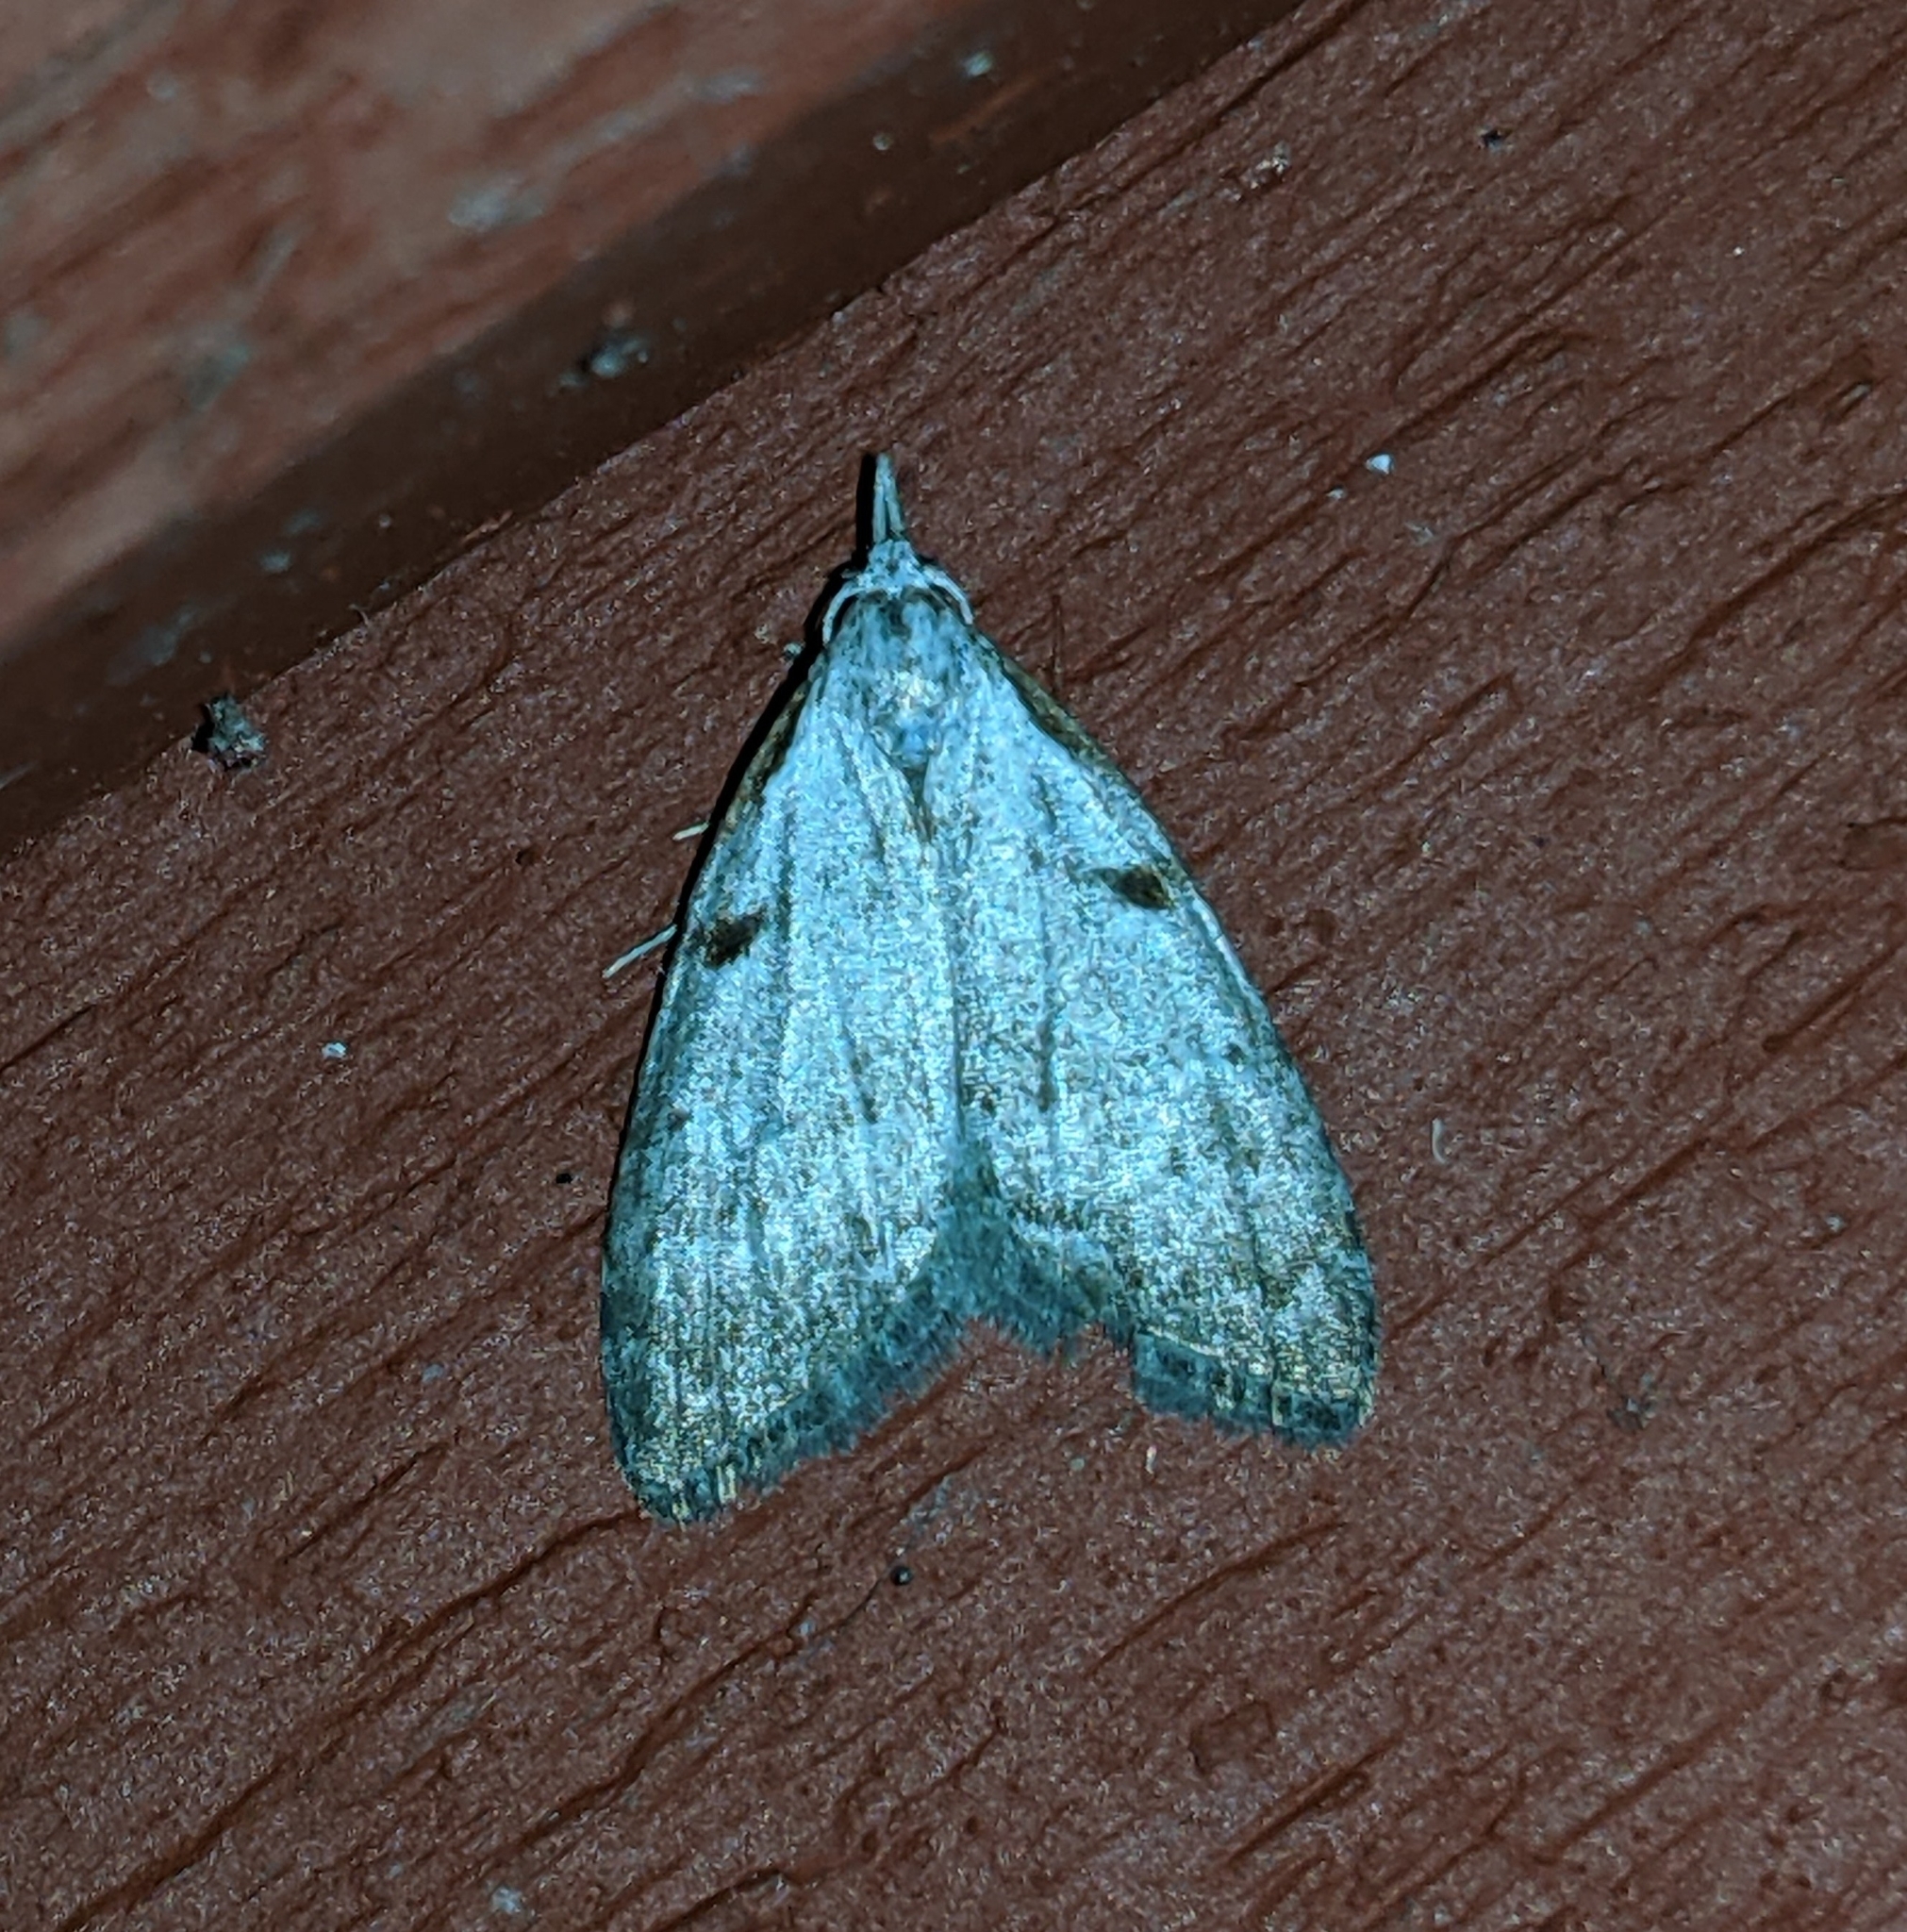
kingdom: Animalia
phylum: Arthropoda
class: Insecta
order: Lepidoptera
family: Nolidae
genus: Nola
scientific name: Nola minna
